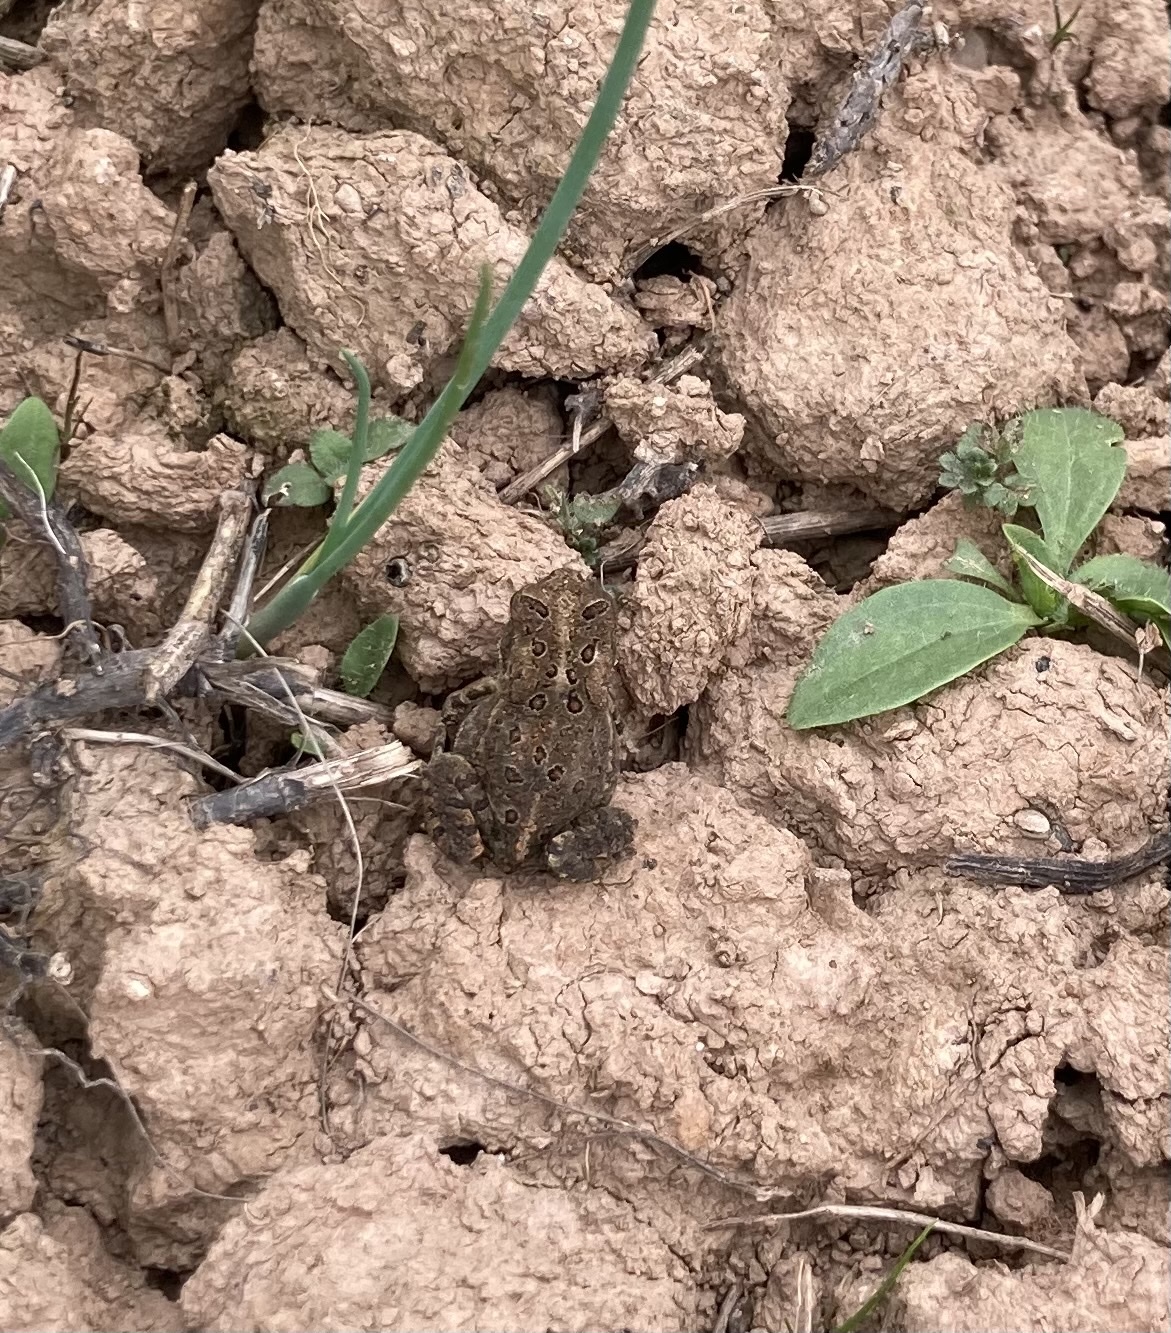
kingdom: Animalia
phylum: Chordata
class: Amphibia
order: Anura
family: Bufonidae
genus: Anaxyrus
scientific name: Anaxyrus americanus
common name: American toad
